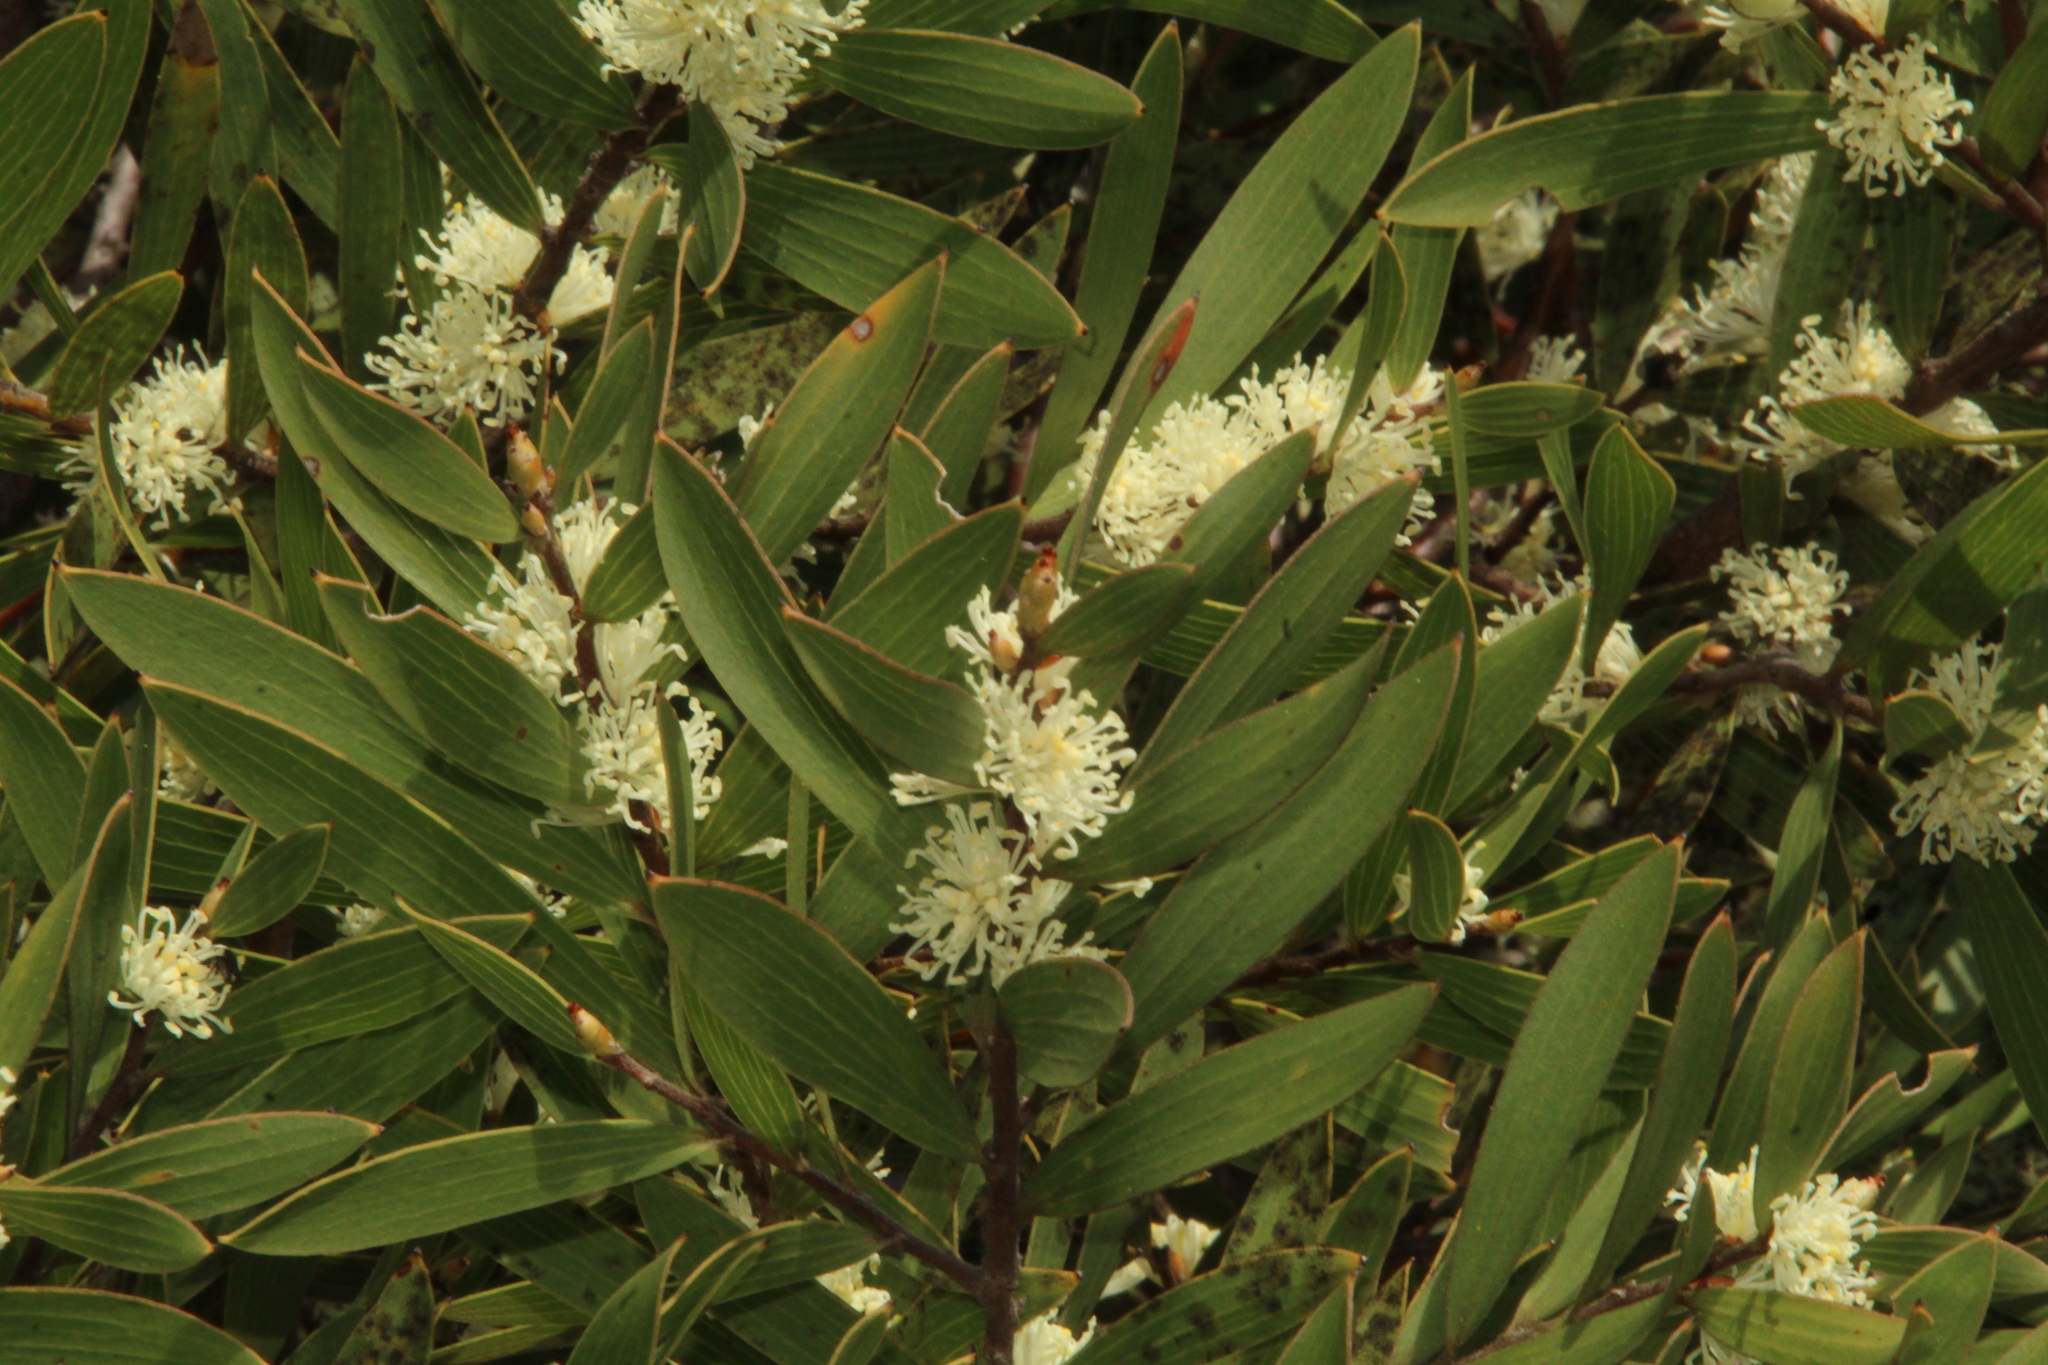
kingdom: Plantae
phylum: Tracheophyta
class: Magnoliopsida
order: Proteales
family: Proteaceae
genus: Hakea
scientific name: Hakea ambigua
